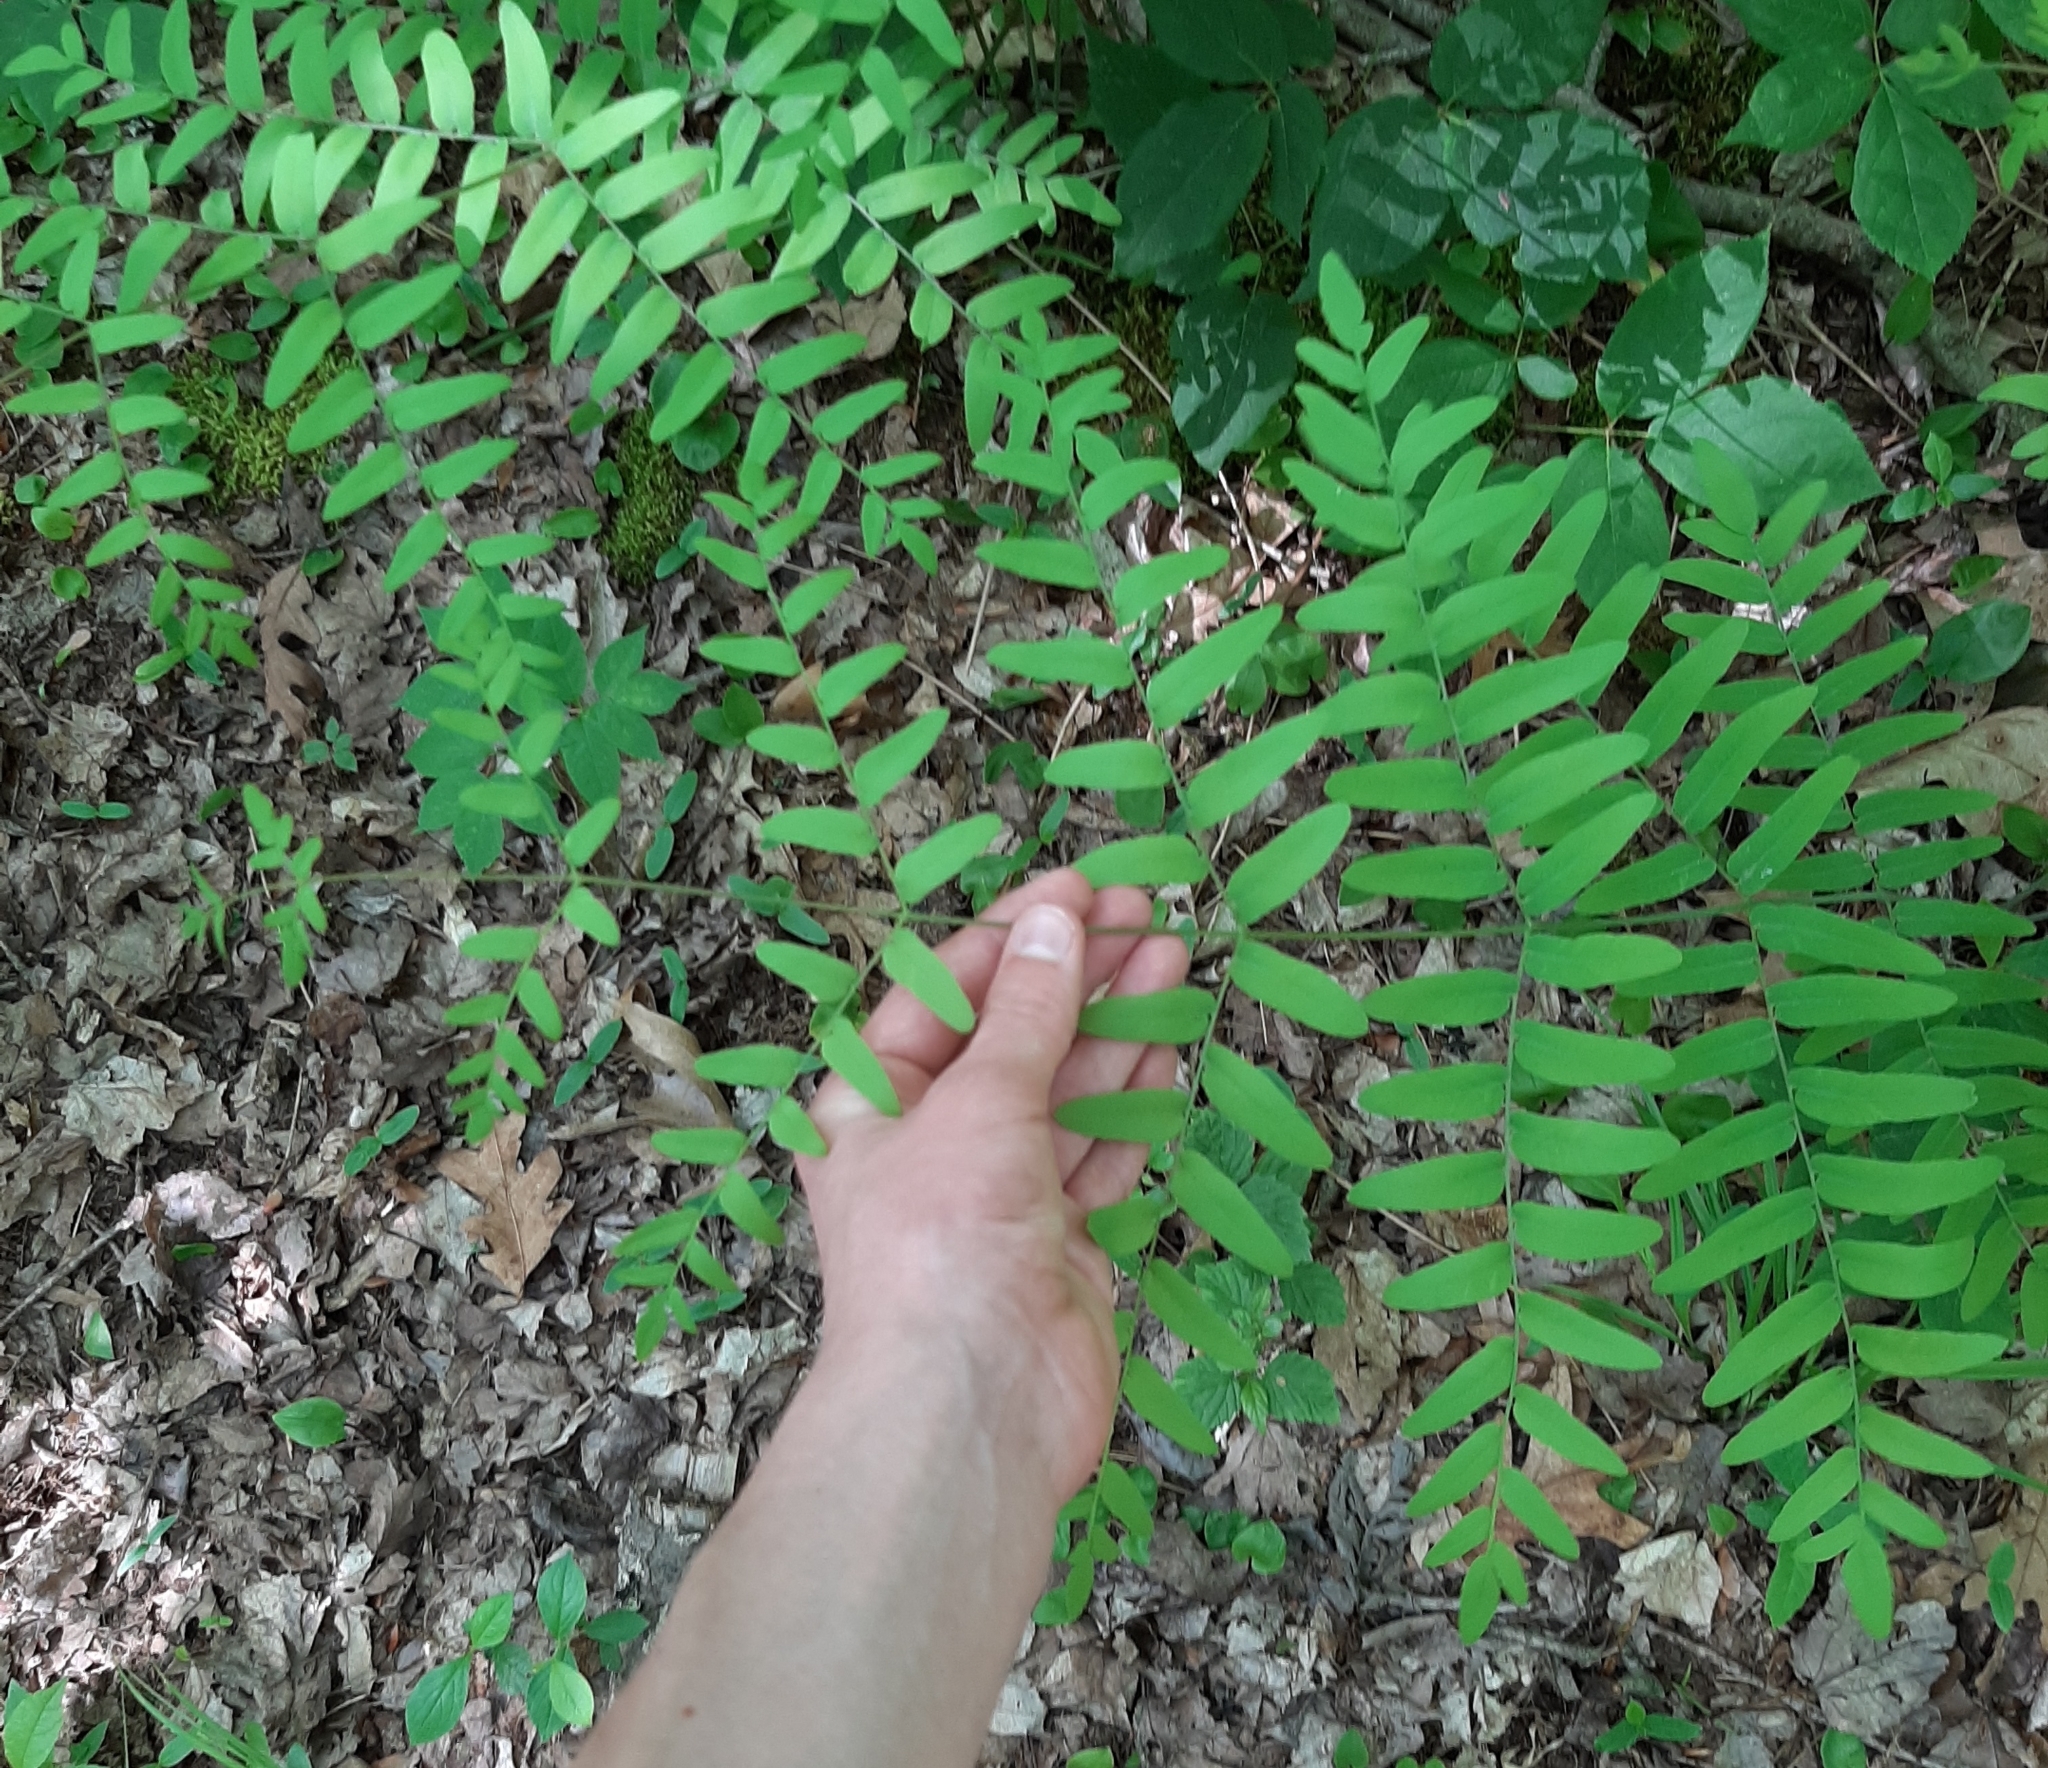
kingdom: Plantae
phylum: Tracheophyta
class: Polypodiopsida
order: Osmundales
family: Osmundaceae
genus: Osmunda
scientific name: Osmunda spectabilis
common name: American royal fern
